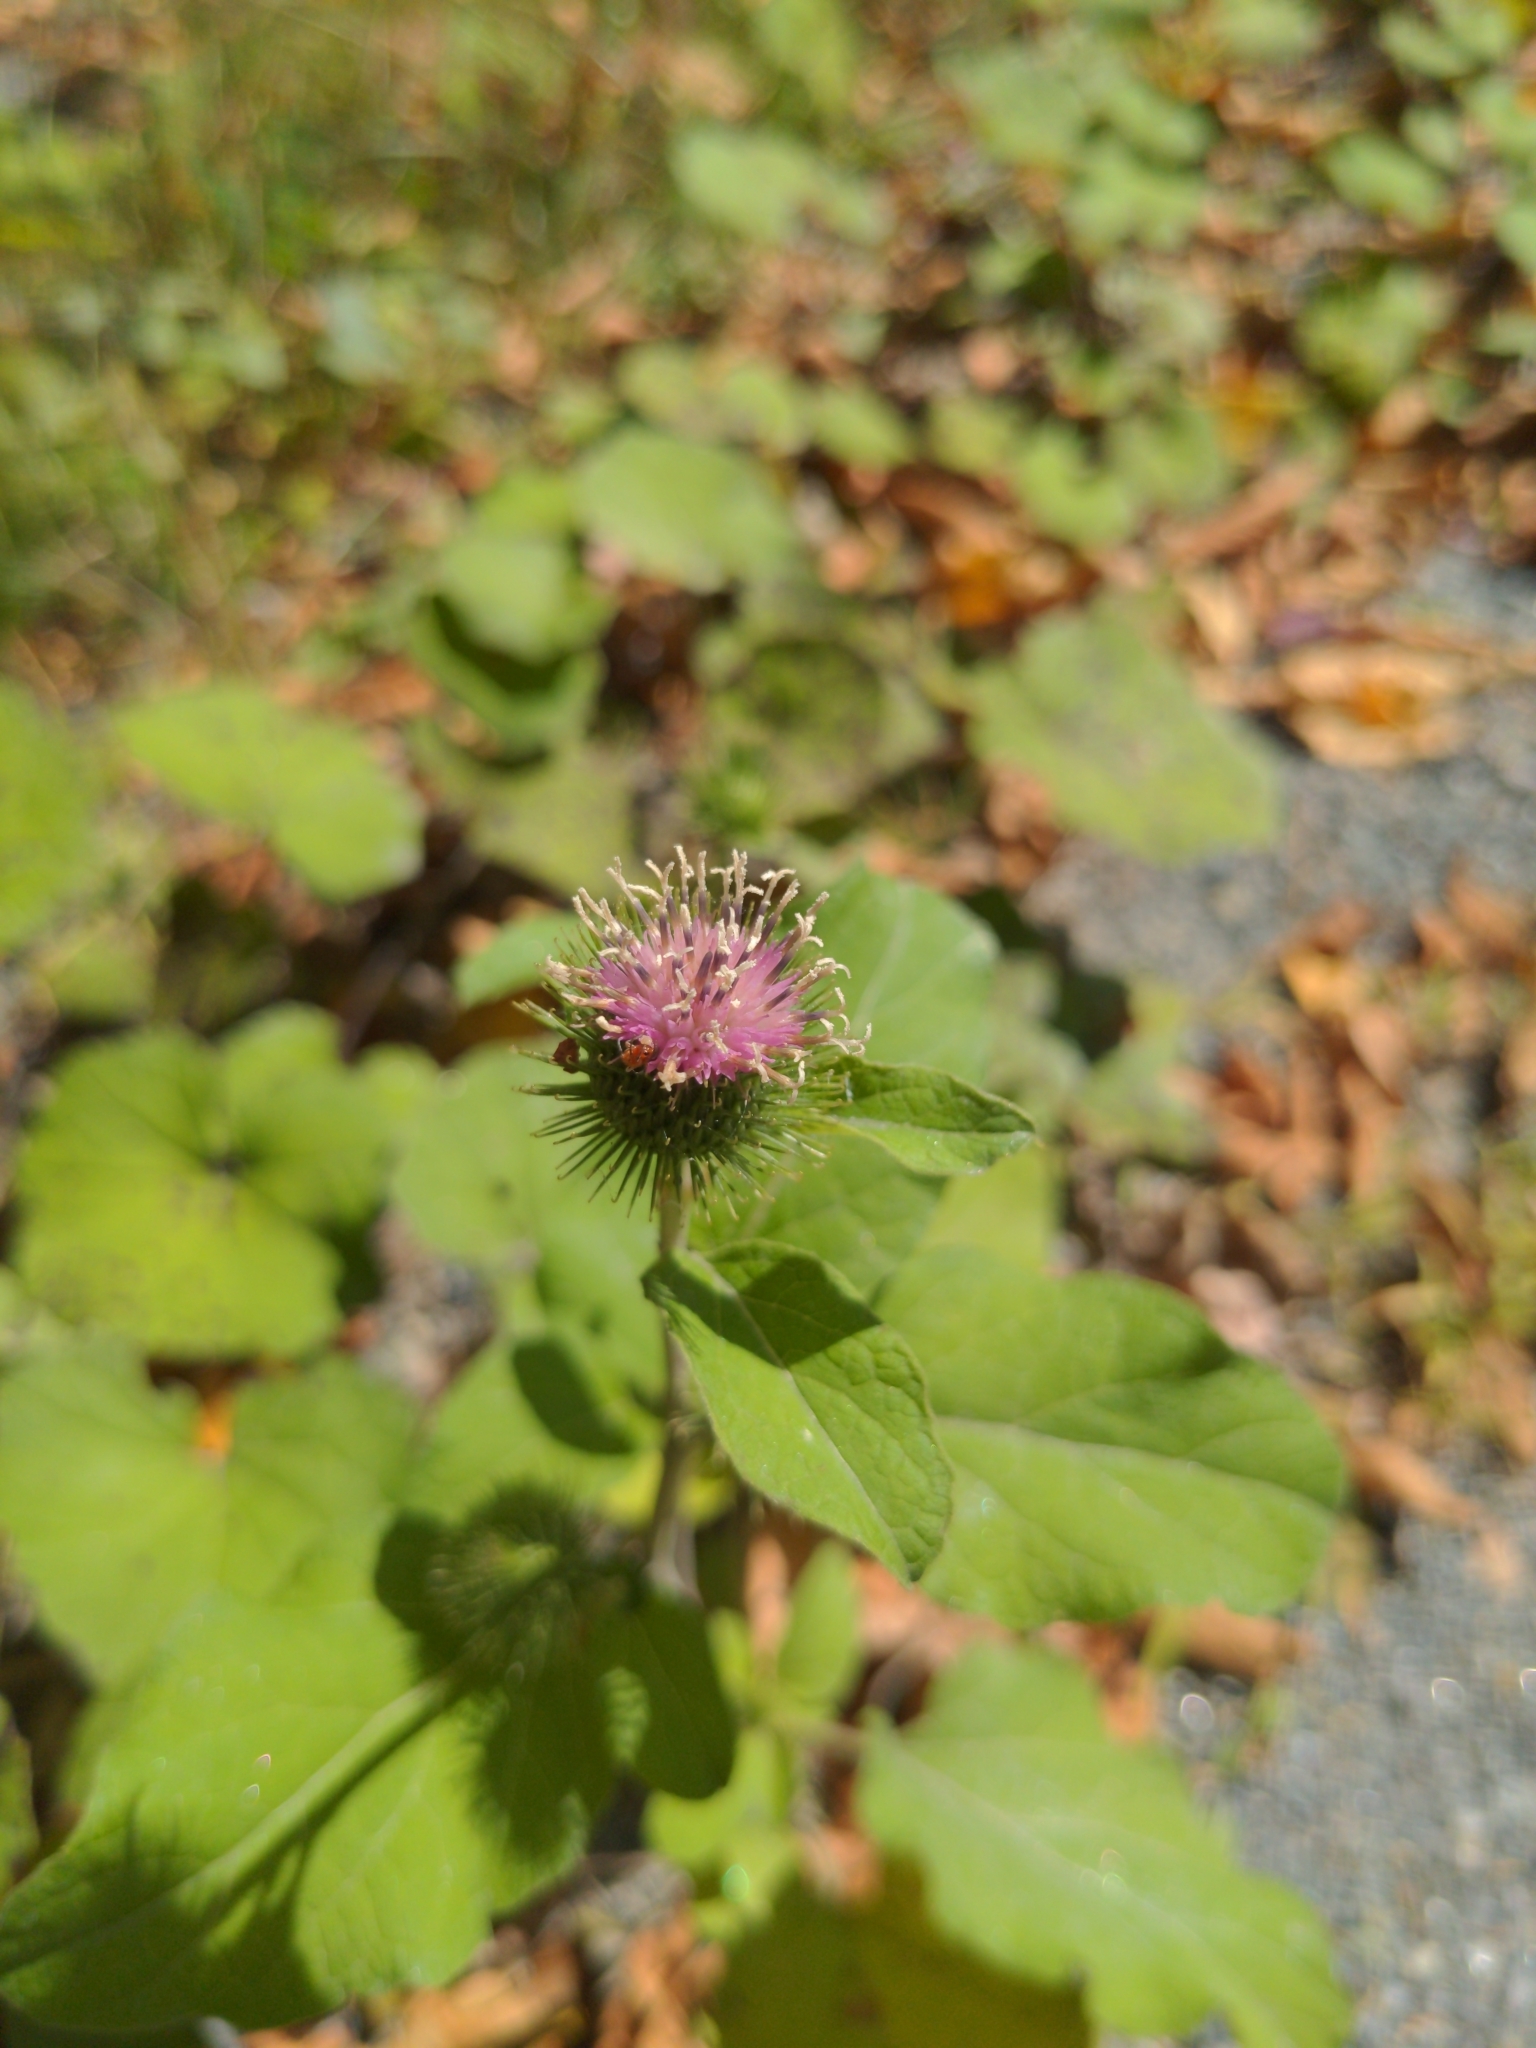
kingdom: Plantae
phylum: Tracheophyta
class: Magnoliopsida
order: Asterales
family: Asteraceae
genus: Arctium
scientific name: Arctium
